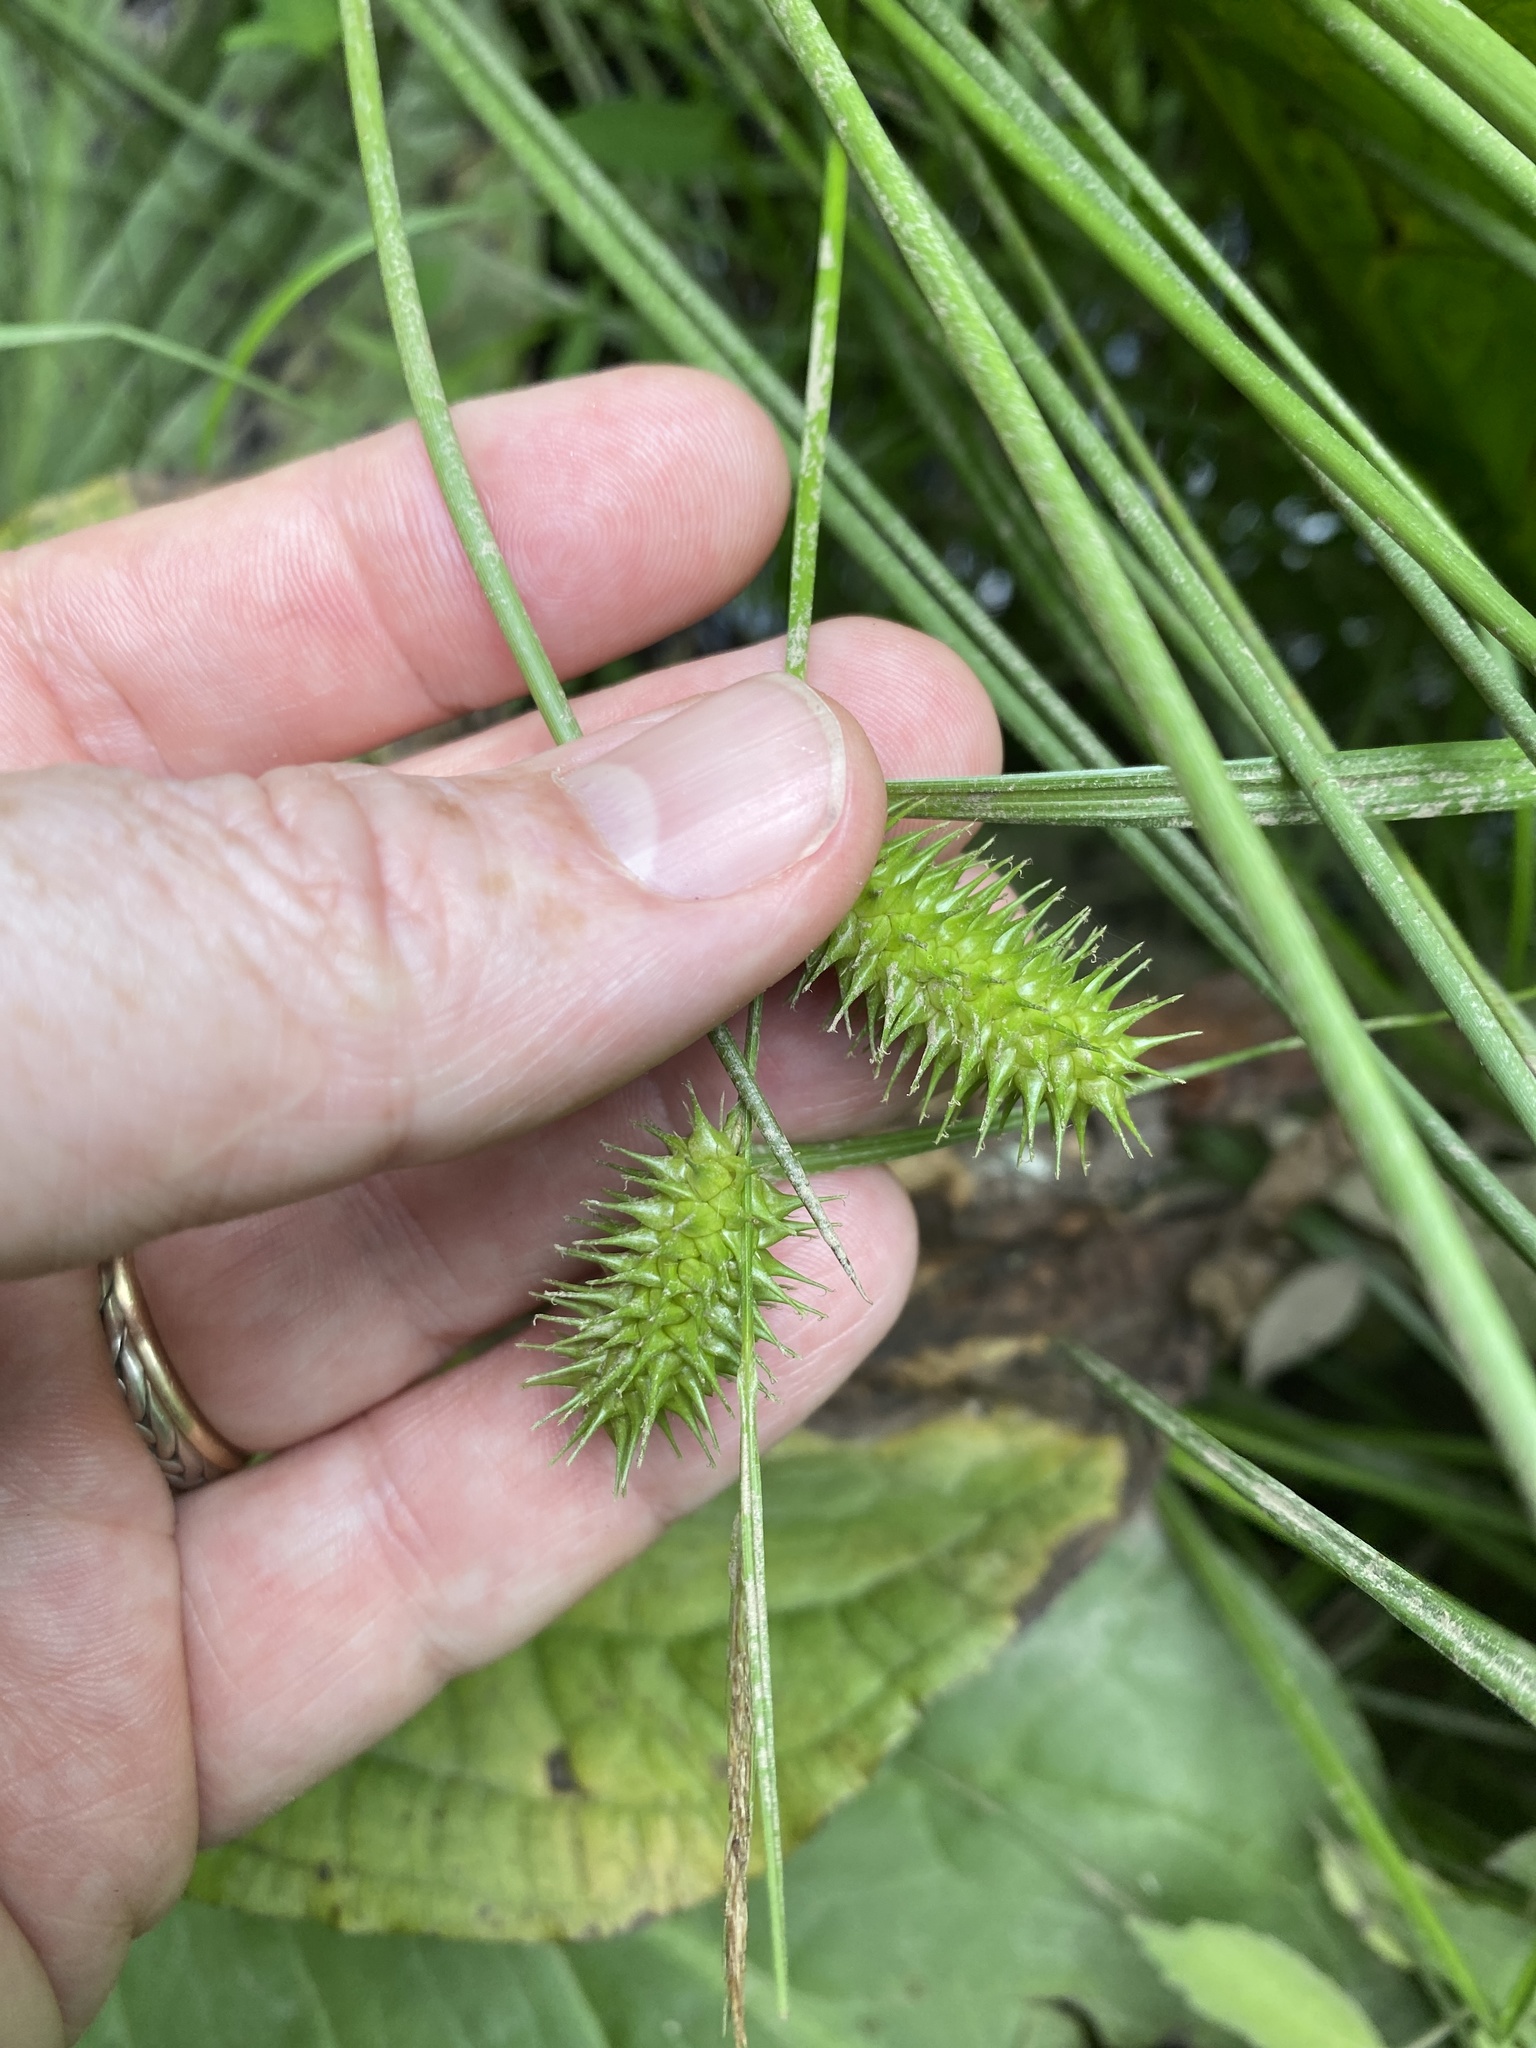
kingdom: Plantae
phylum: Tracheophyta
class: Liliopsida
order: Poales
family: Cyperaceae
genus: Carex
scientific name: Carex lurida
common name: Sallow sedge
